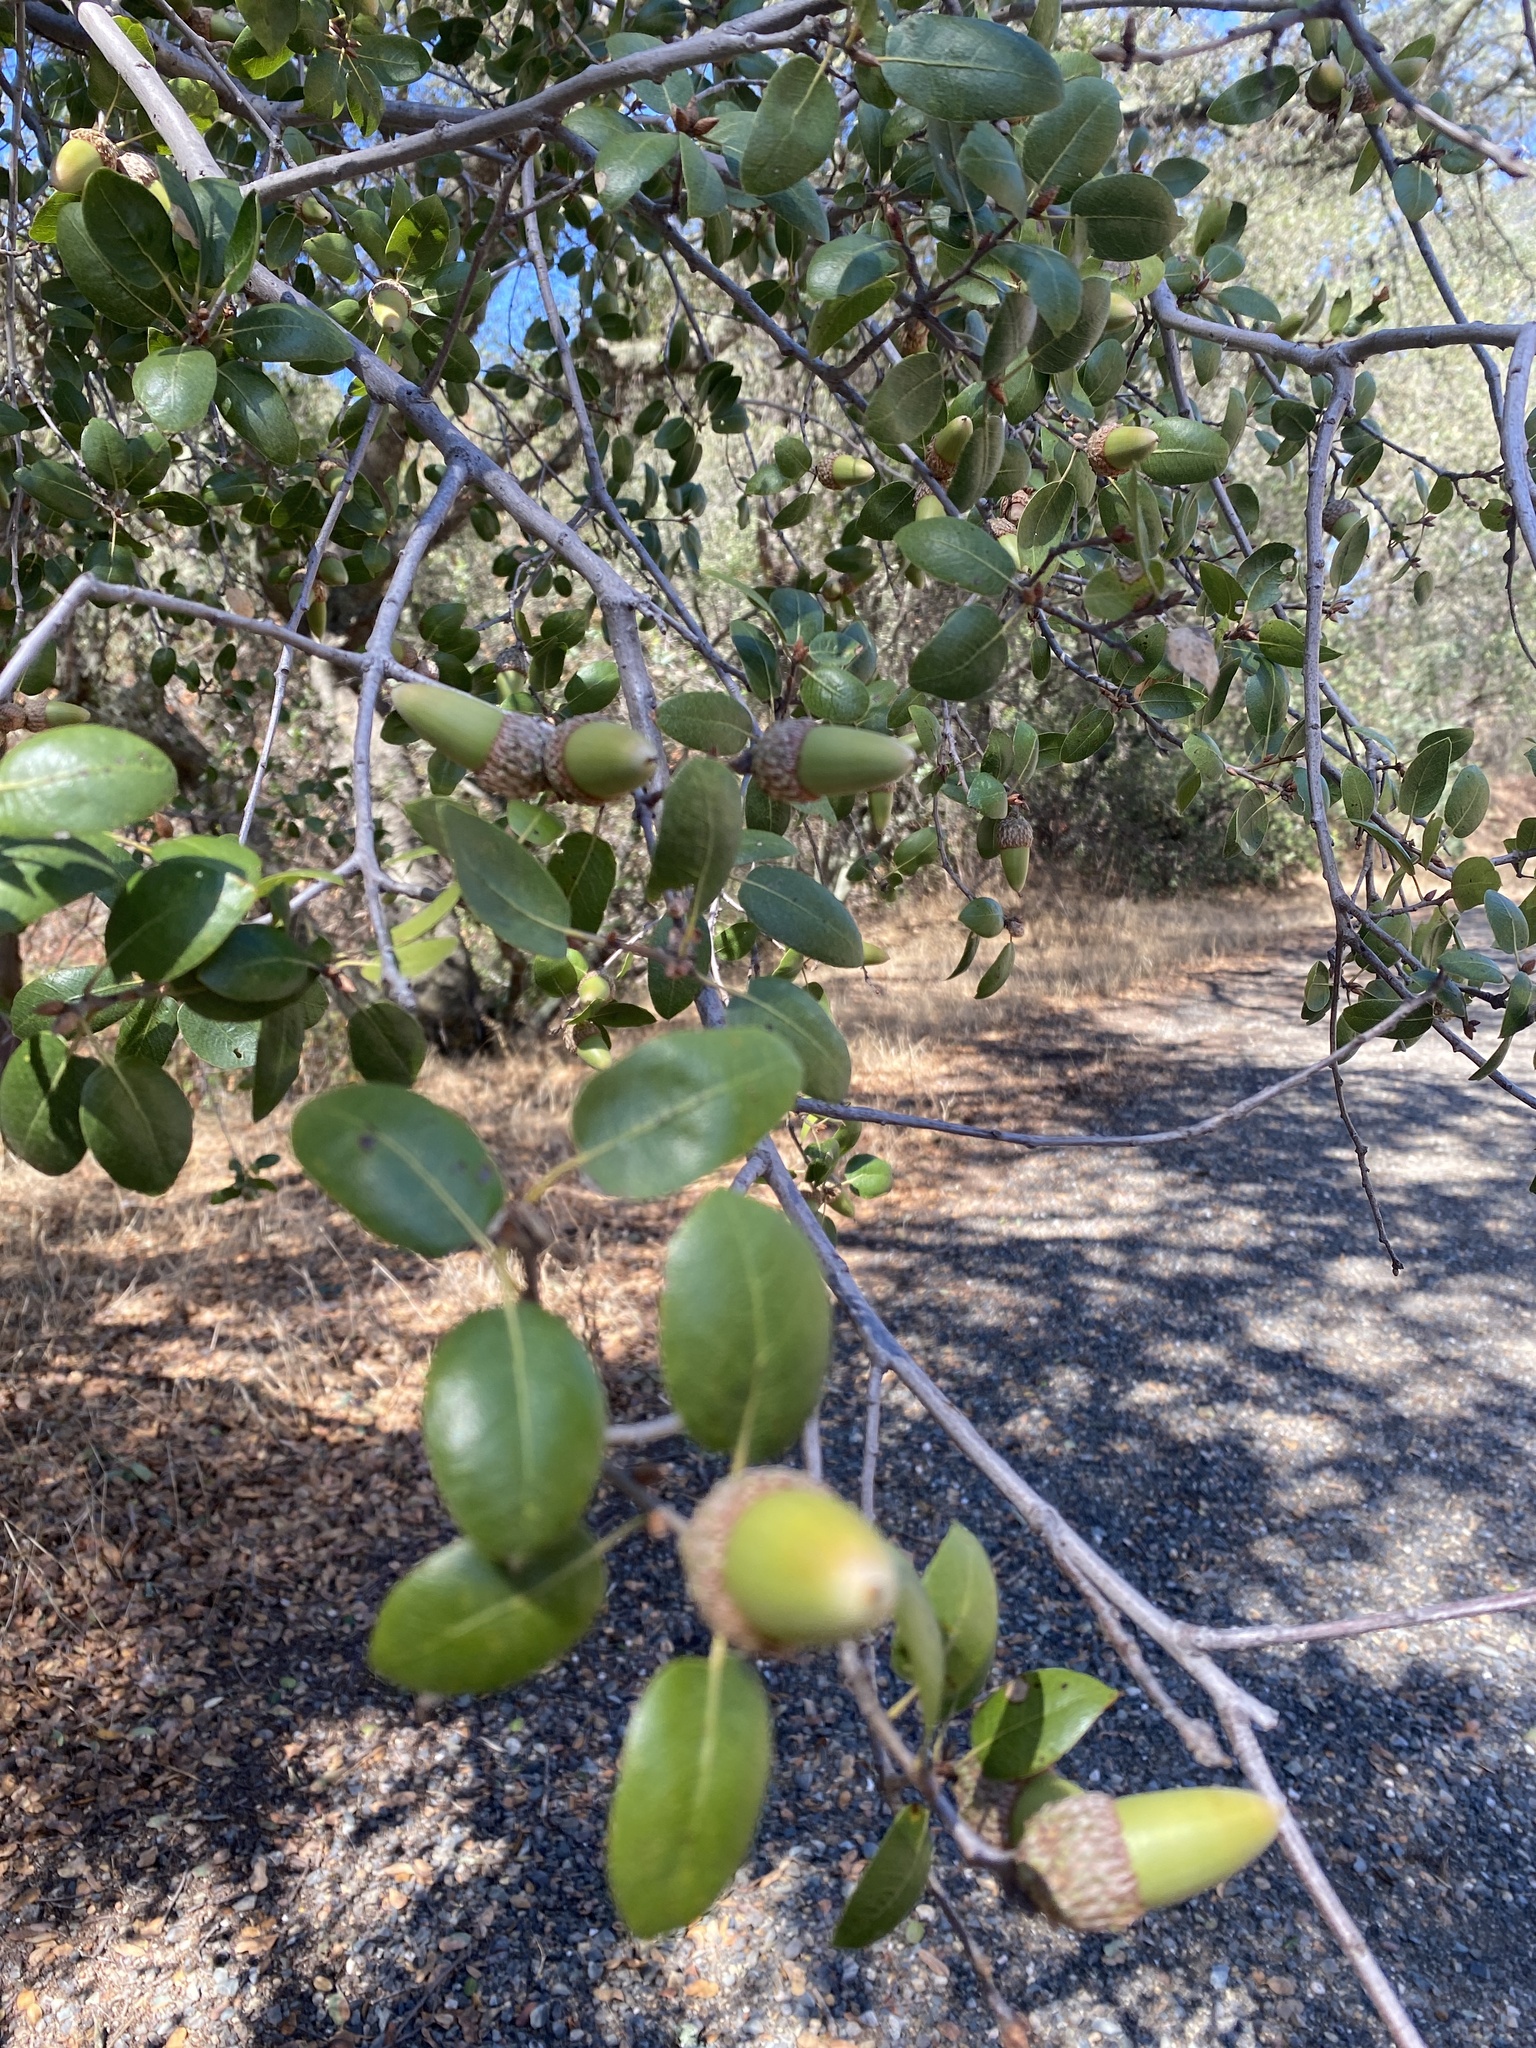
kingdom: Plantae
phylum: Tracheophyta
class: Magnoliopsida
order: Fagales
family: Fagaceae
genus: Quercus
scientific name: Quercus wislizeni
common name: Interior live oak
